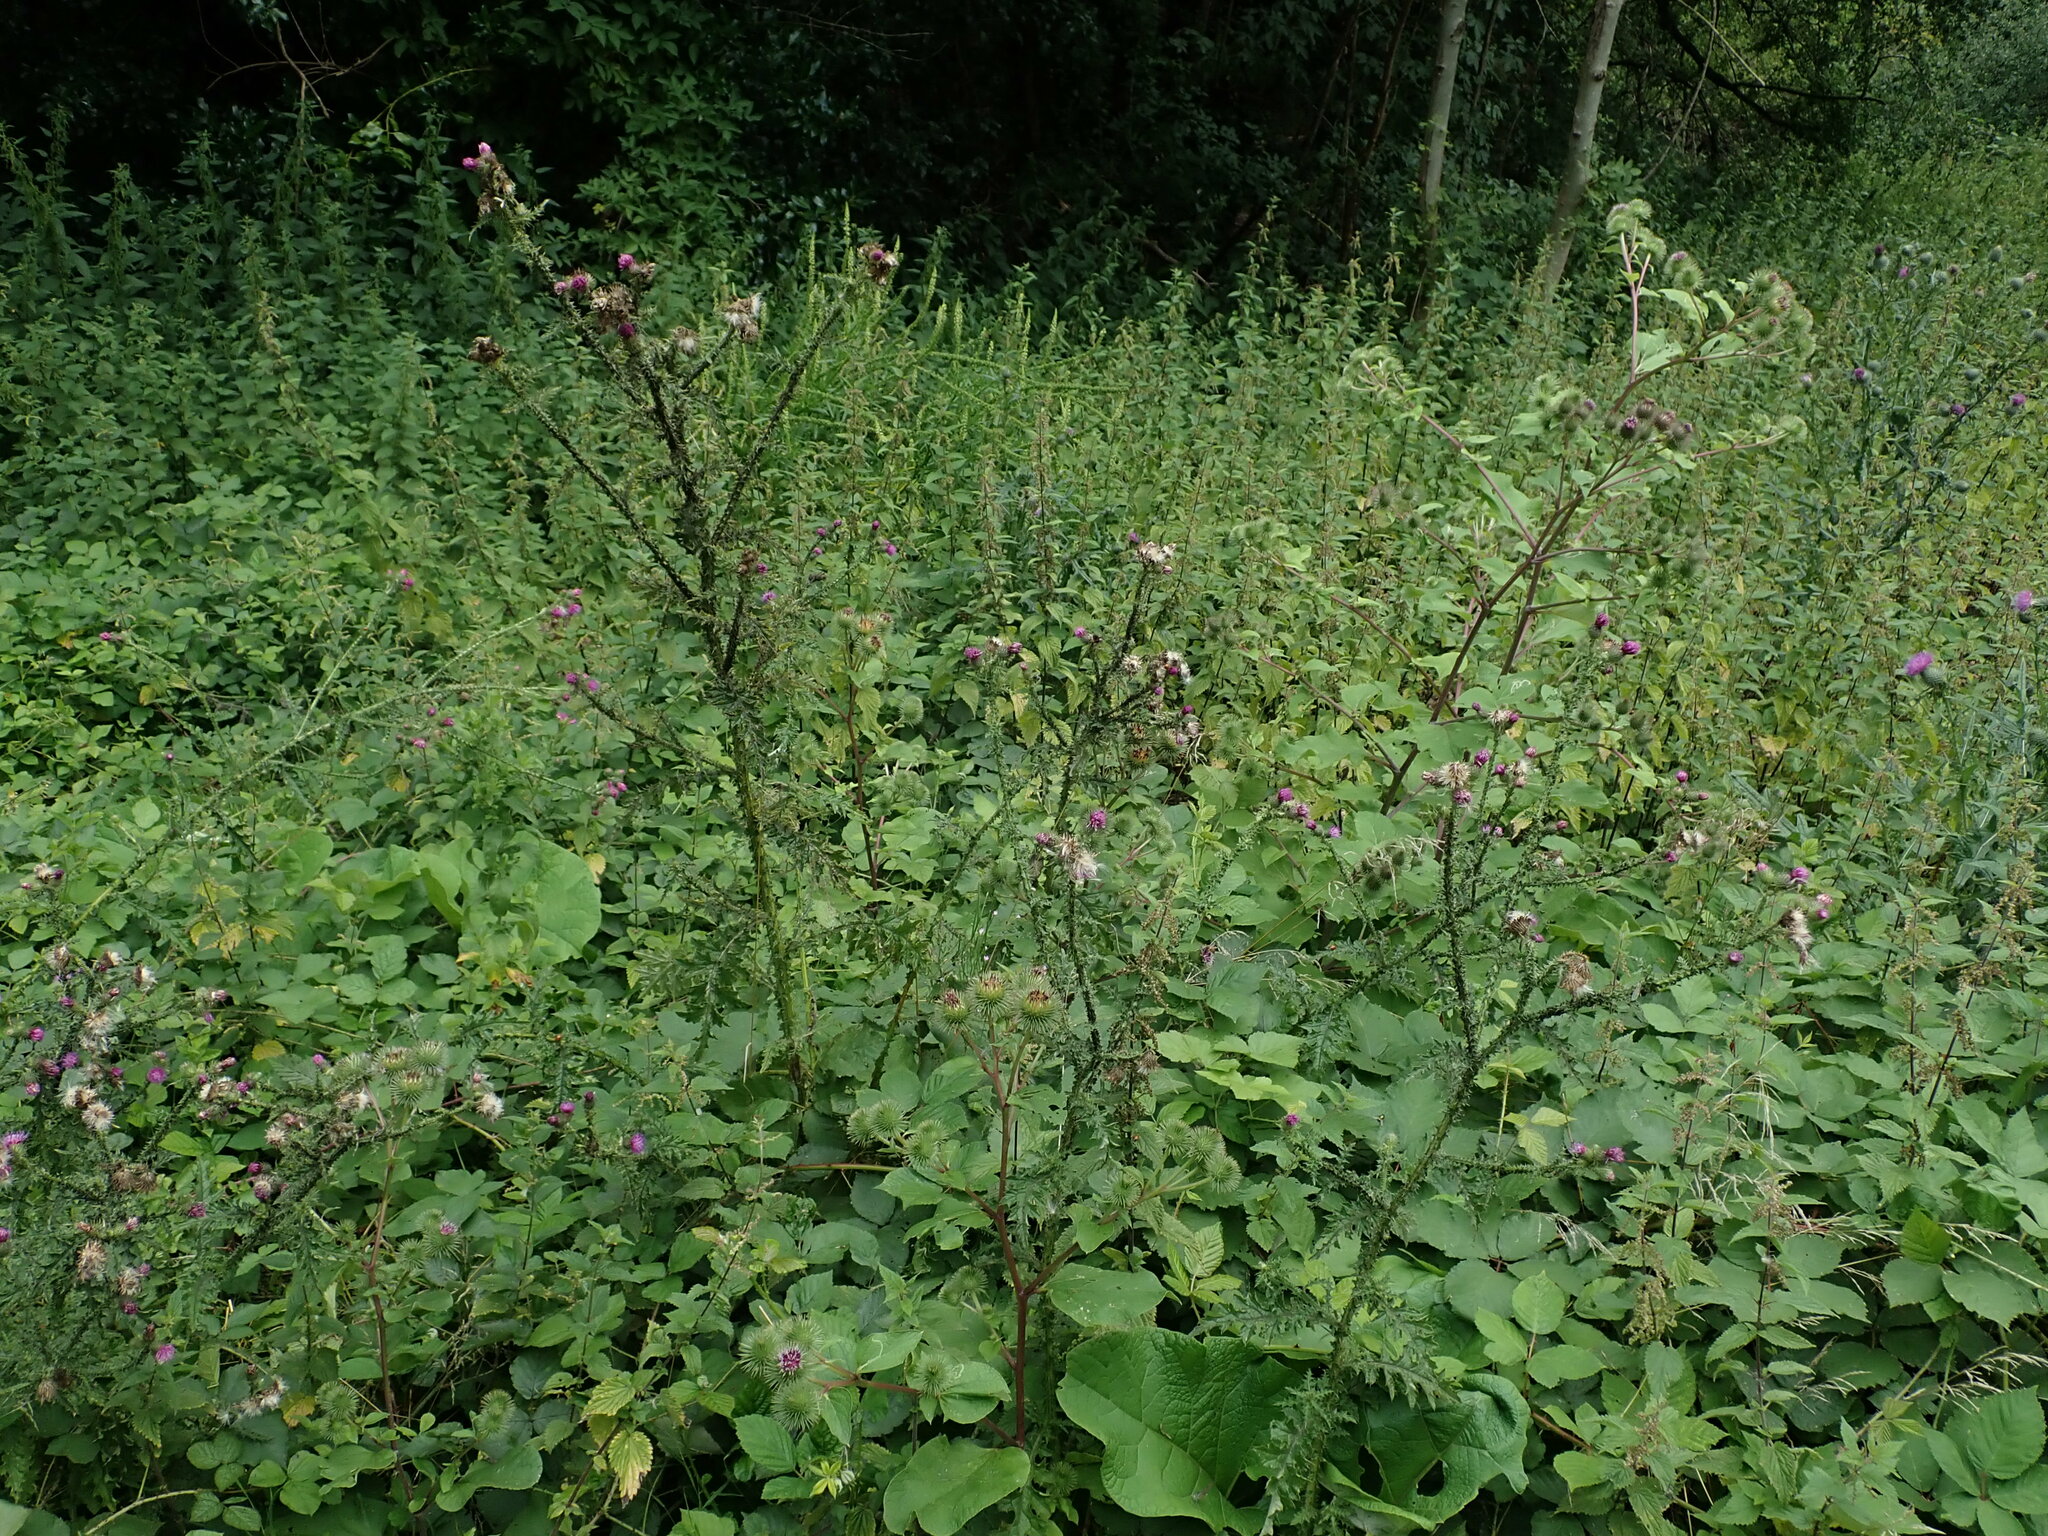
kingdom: Plantae
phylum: Tracheophyta
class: Magnoliopsida
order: Asterales
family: Asteraceae
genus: Carduus
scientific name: Carduus crispus
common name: Welted thistle
